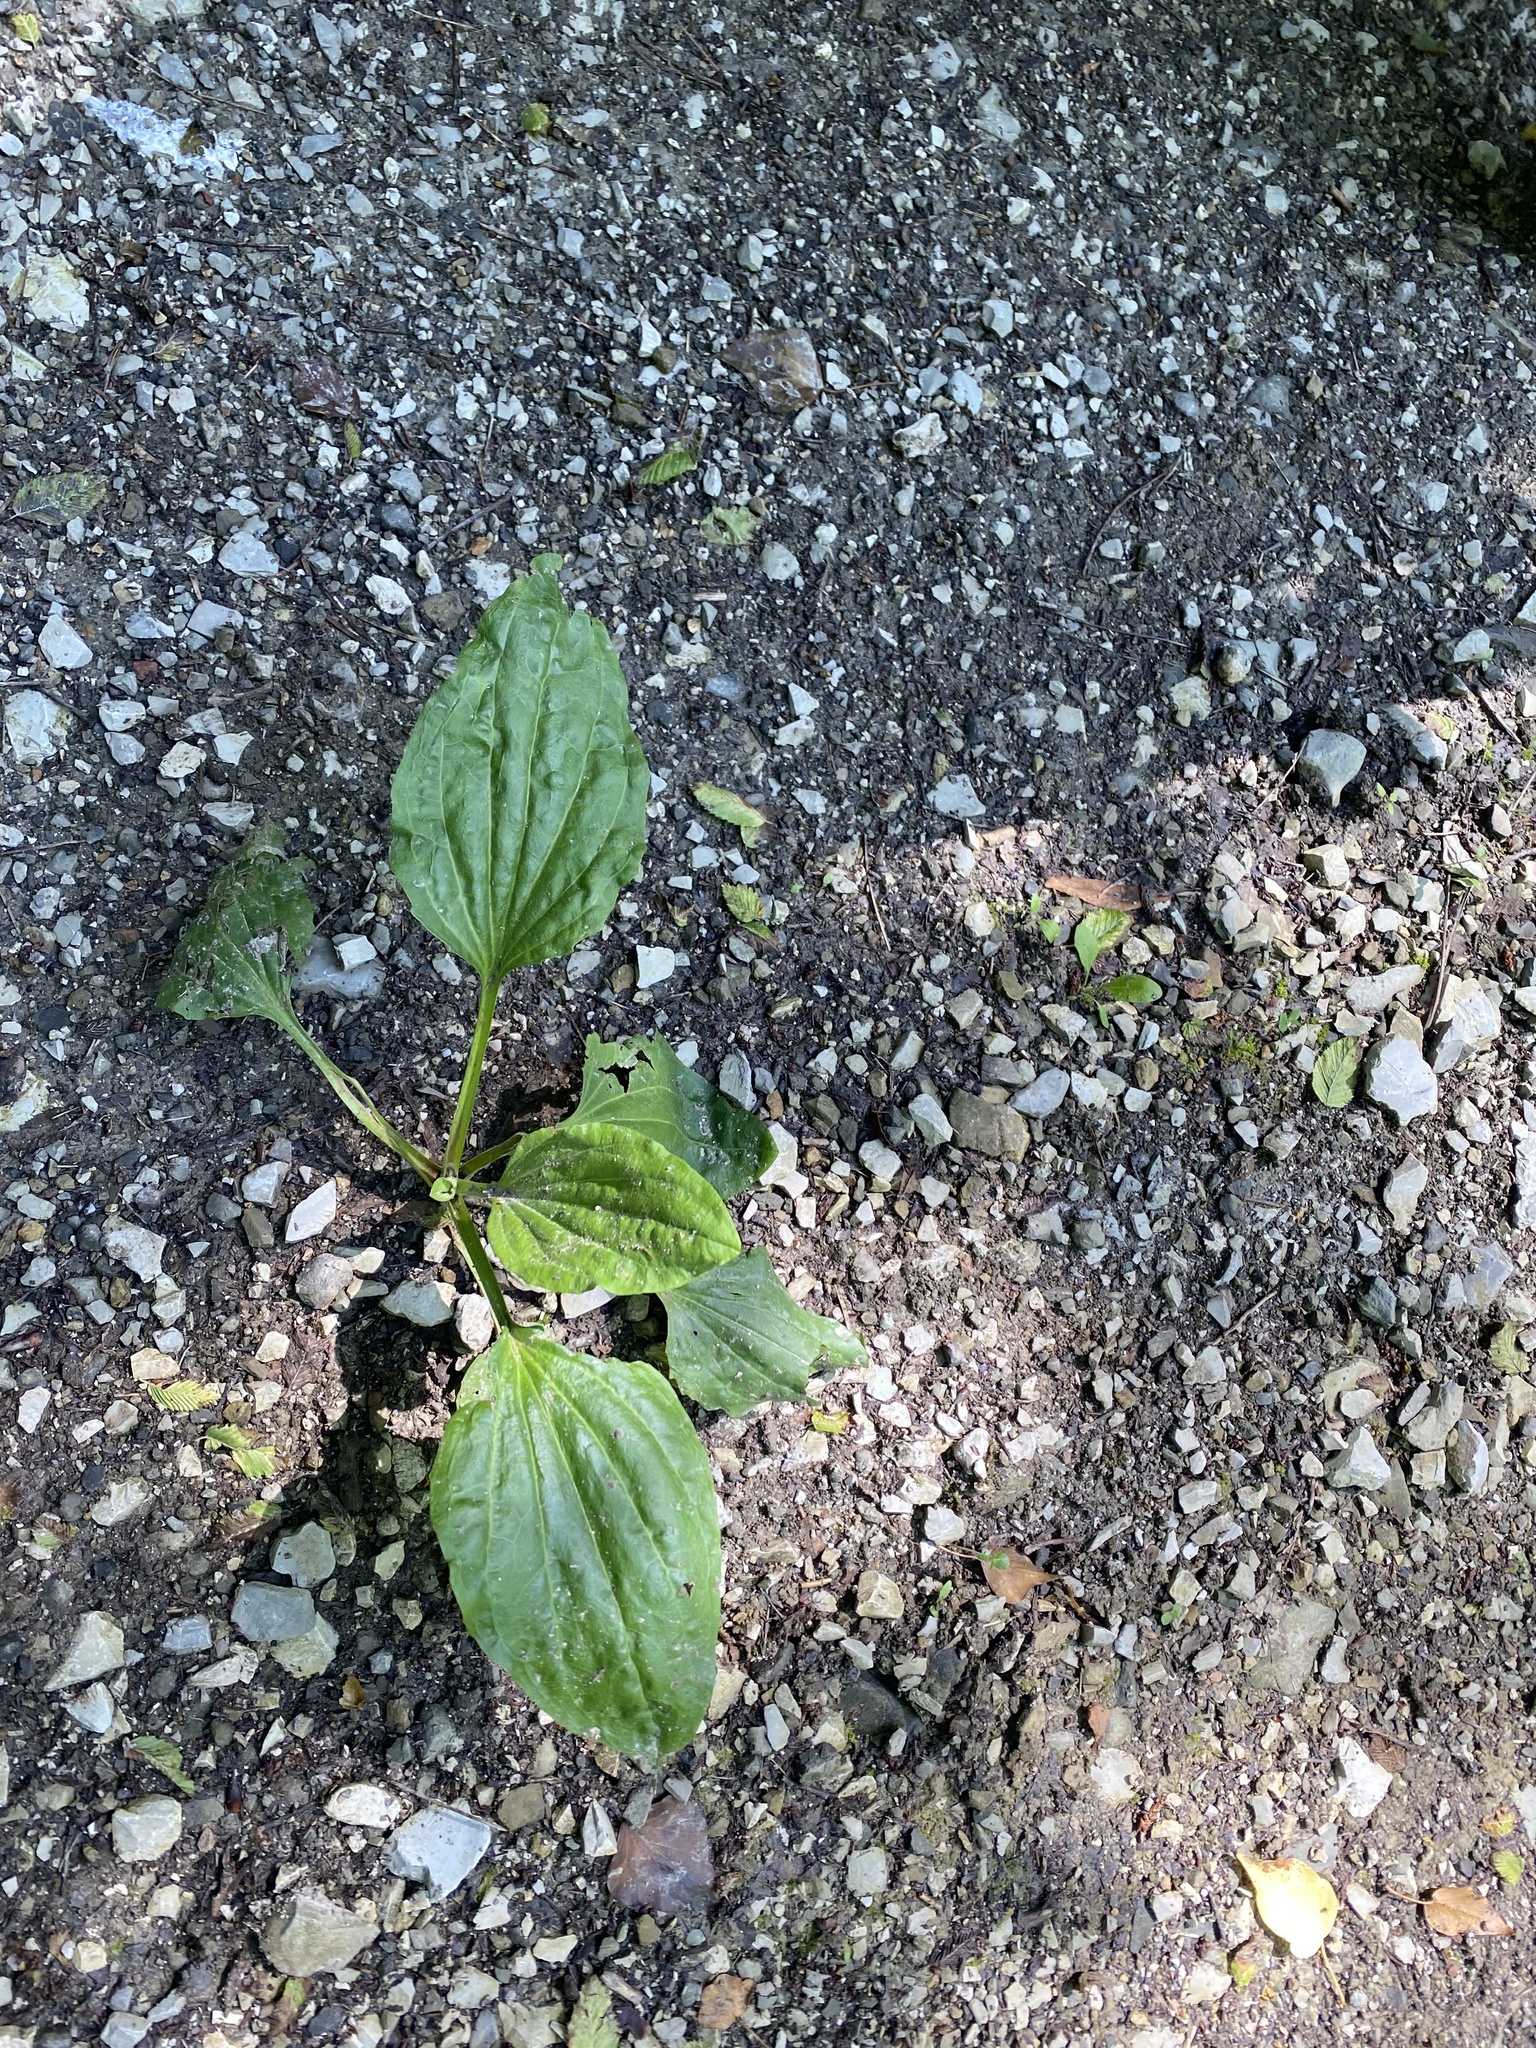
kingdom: Plantae
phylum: Tracheophyta
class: Magnoliopsida
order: Lamiales
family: Plantaginaceae
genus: Plantago
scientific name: Plantago major
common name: Common plantain
